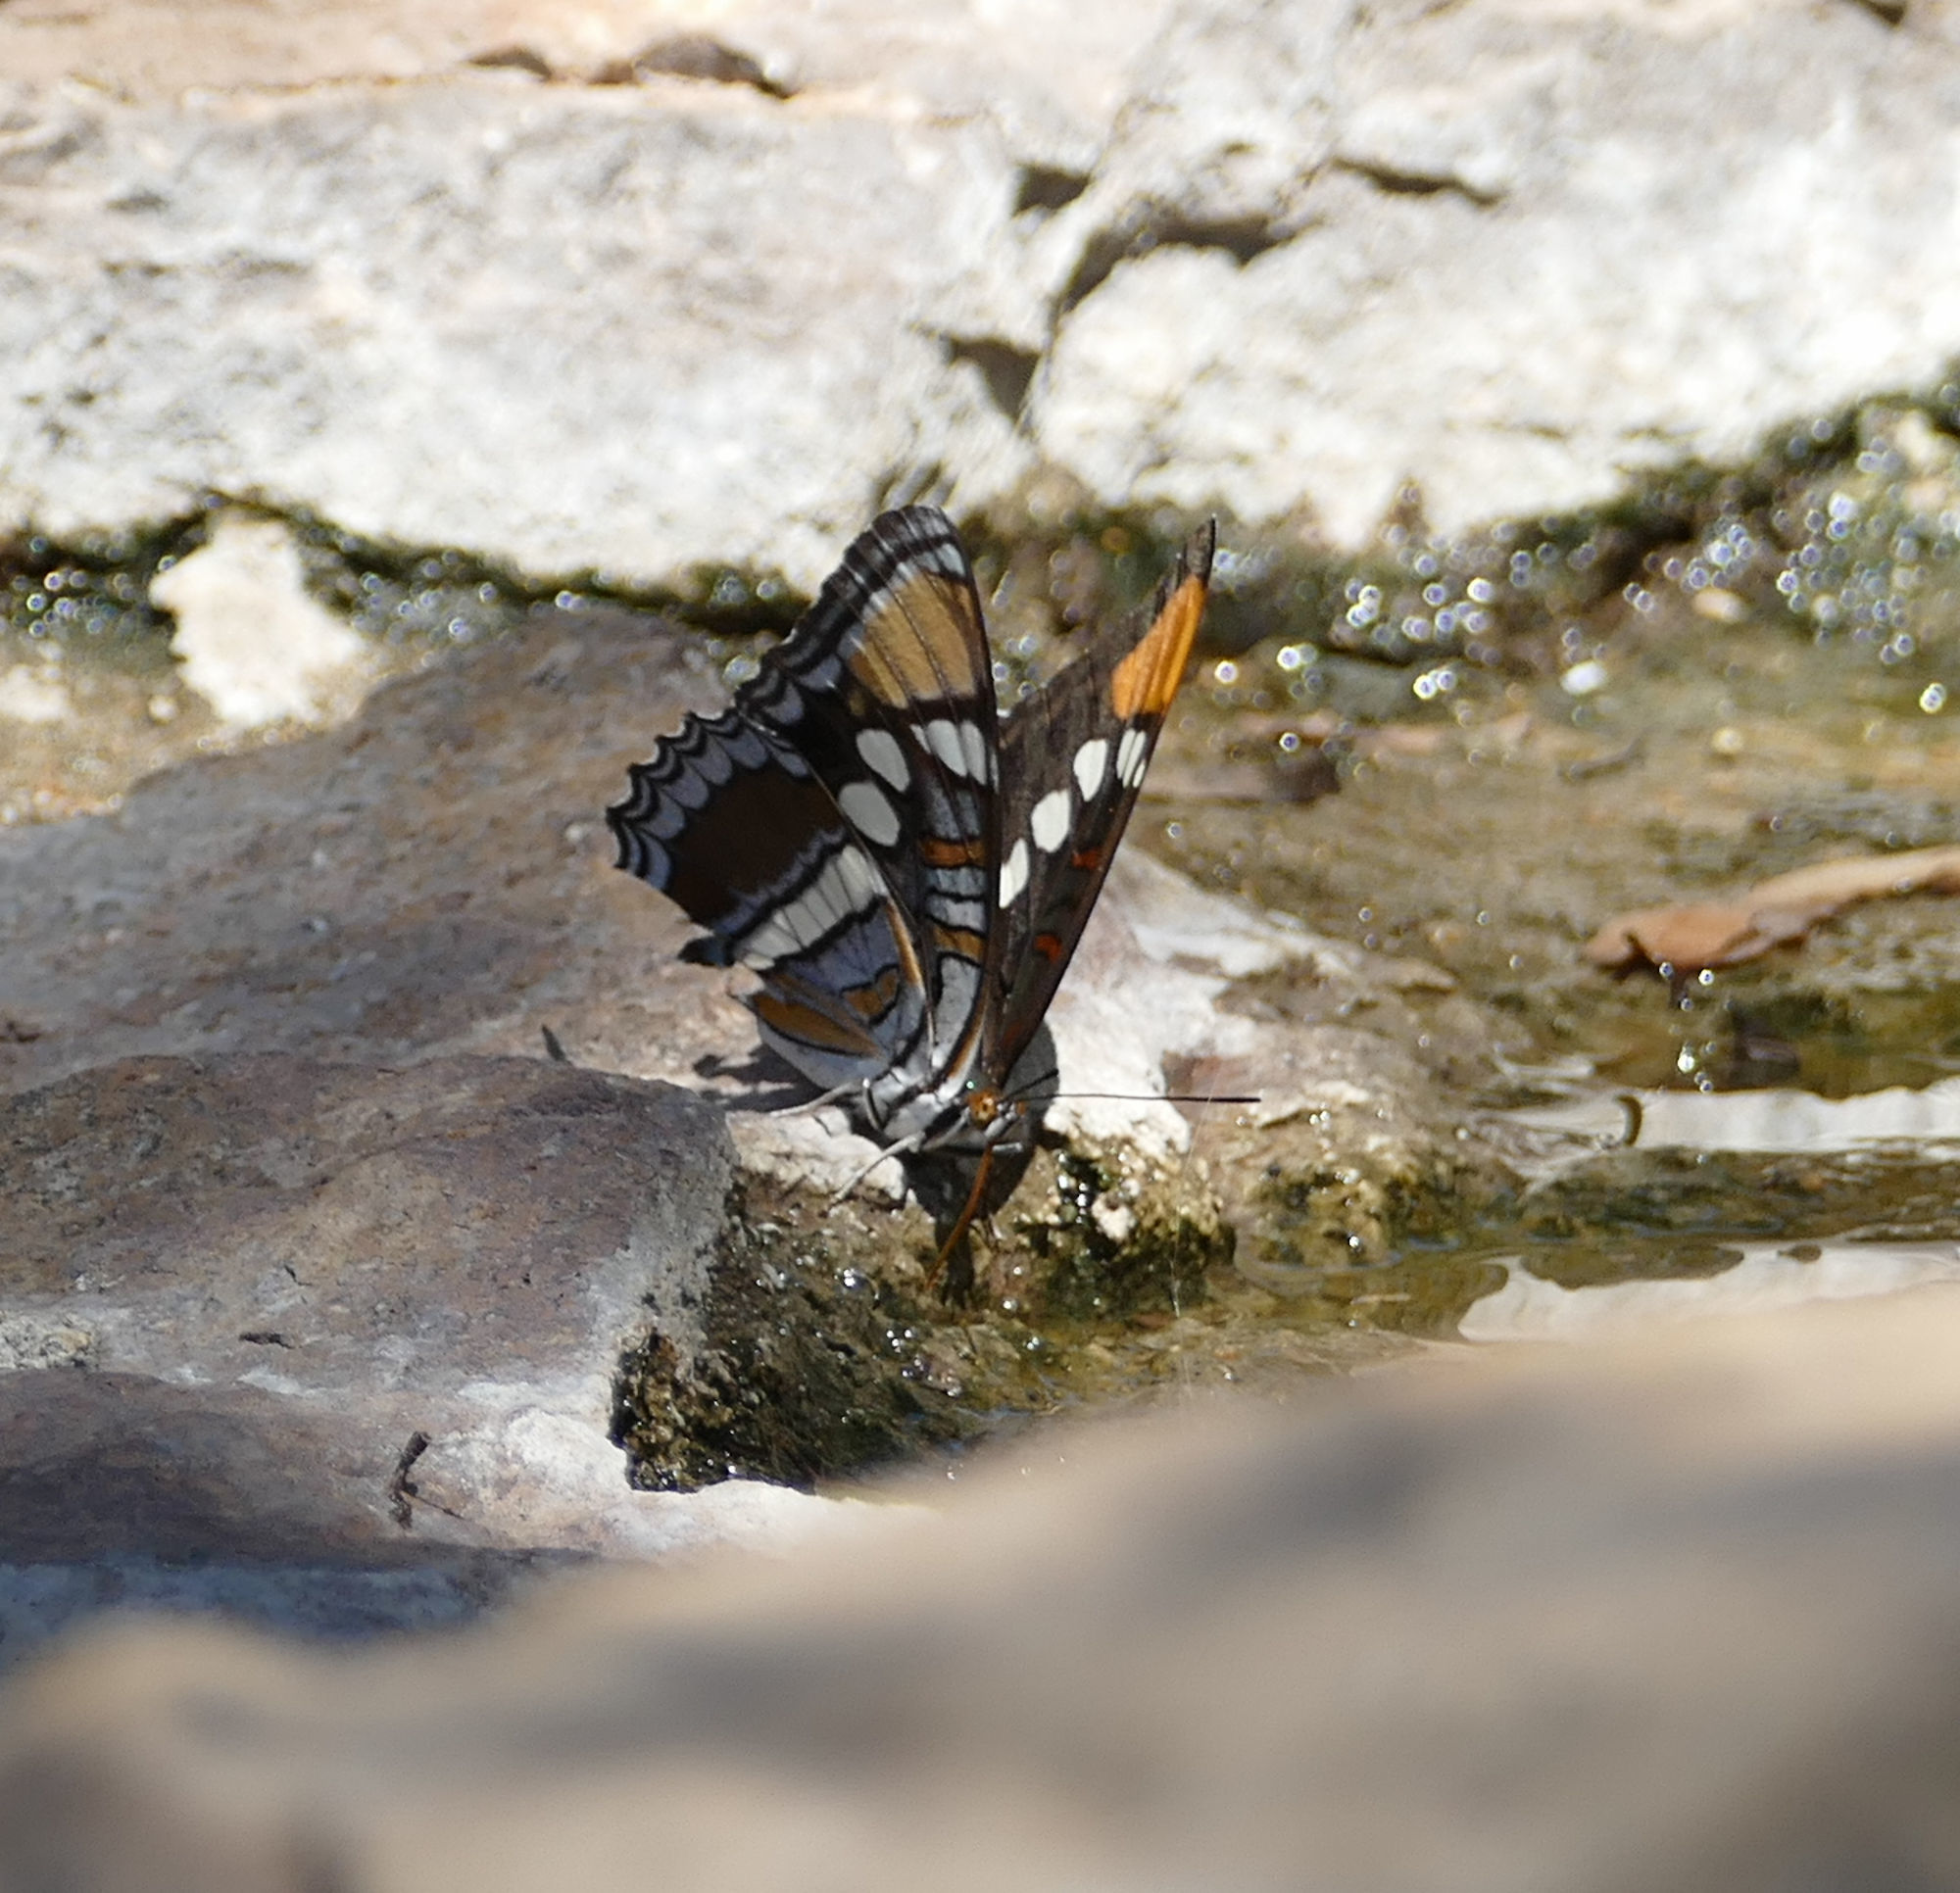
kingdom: Animalia
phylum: Arthropoda
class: Insecta
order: Lepidoptera
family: Nymphalidae
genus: Limenitis
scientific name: Limenitis bredowii
